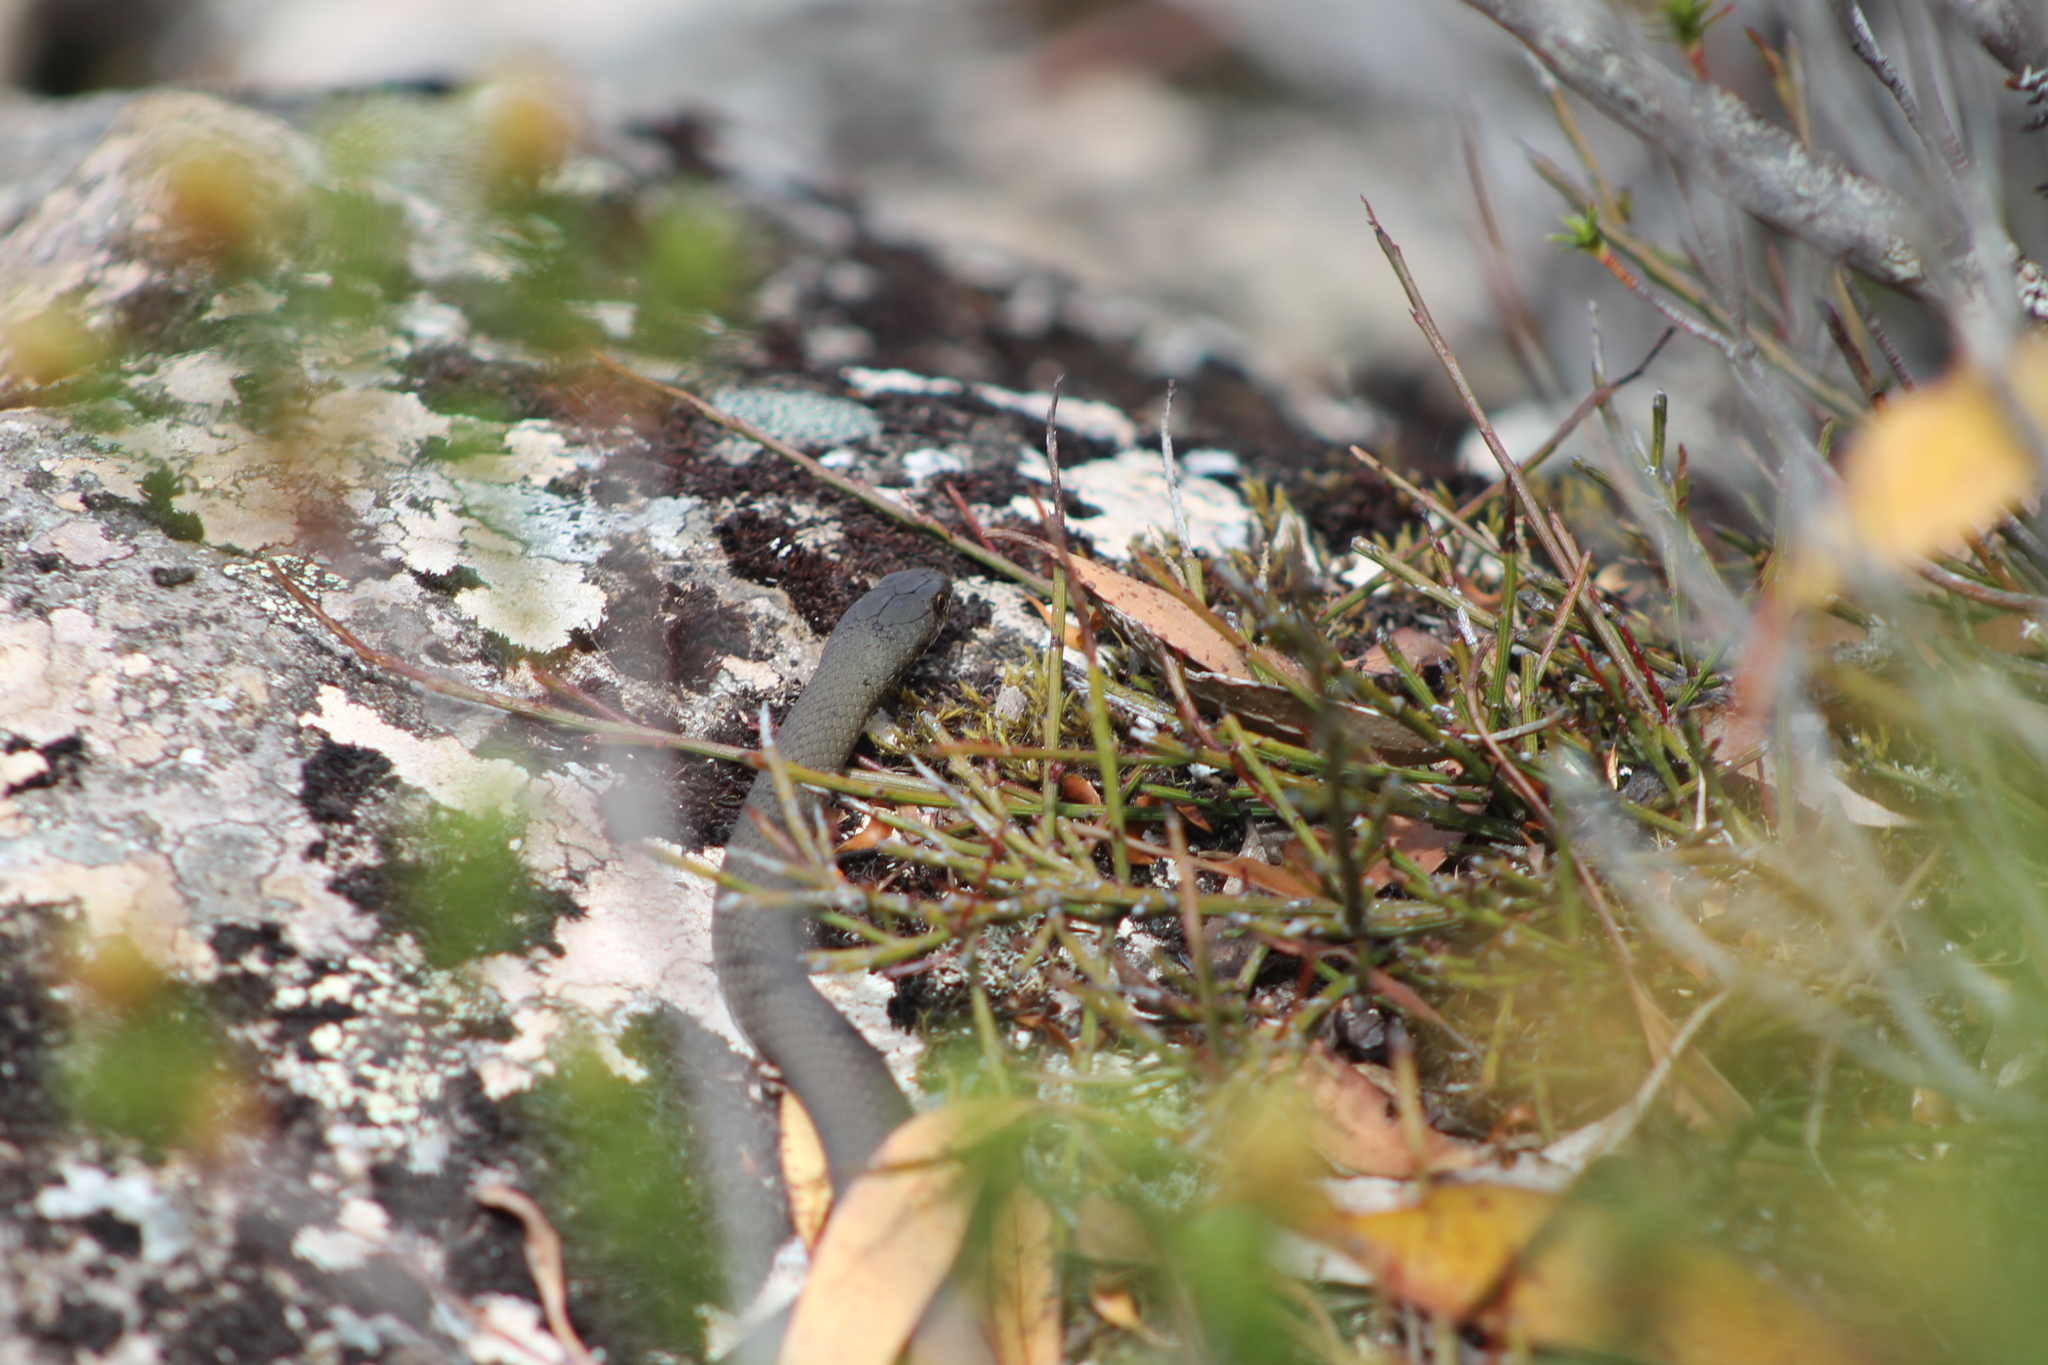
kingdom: Animalia
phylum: Chordata
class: Squamata
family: Elapidae
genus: Drysdalia
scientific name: Drysdalia coronoides
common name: White-lipped snake
